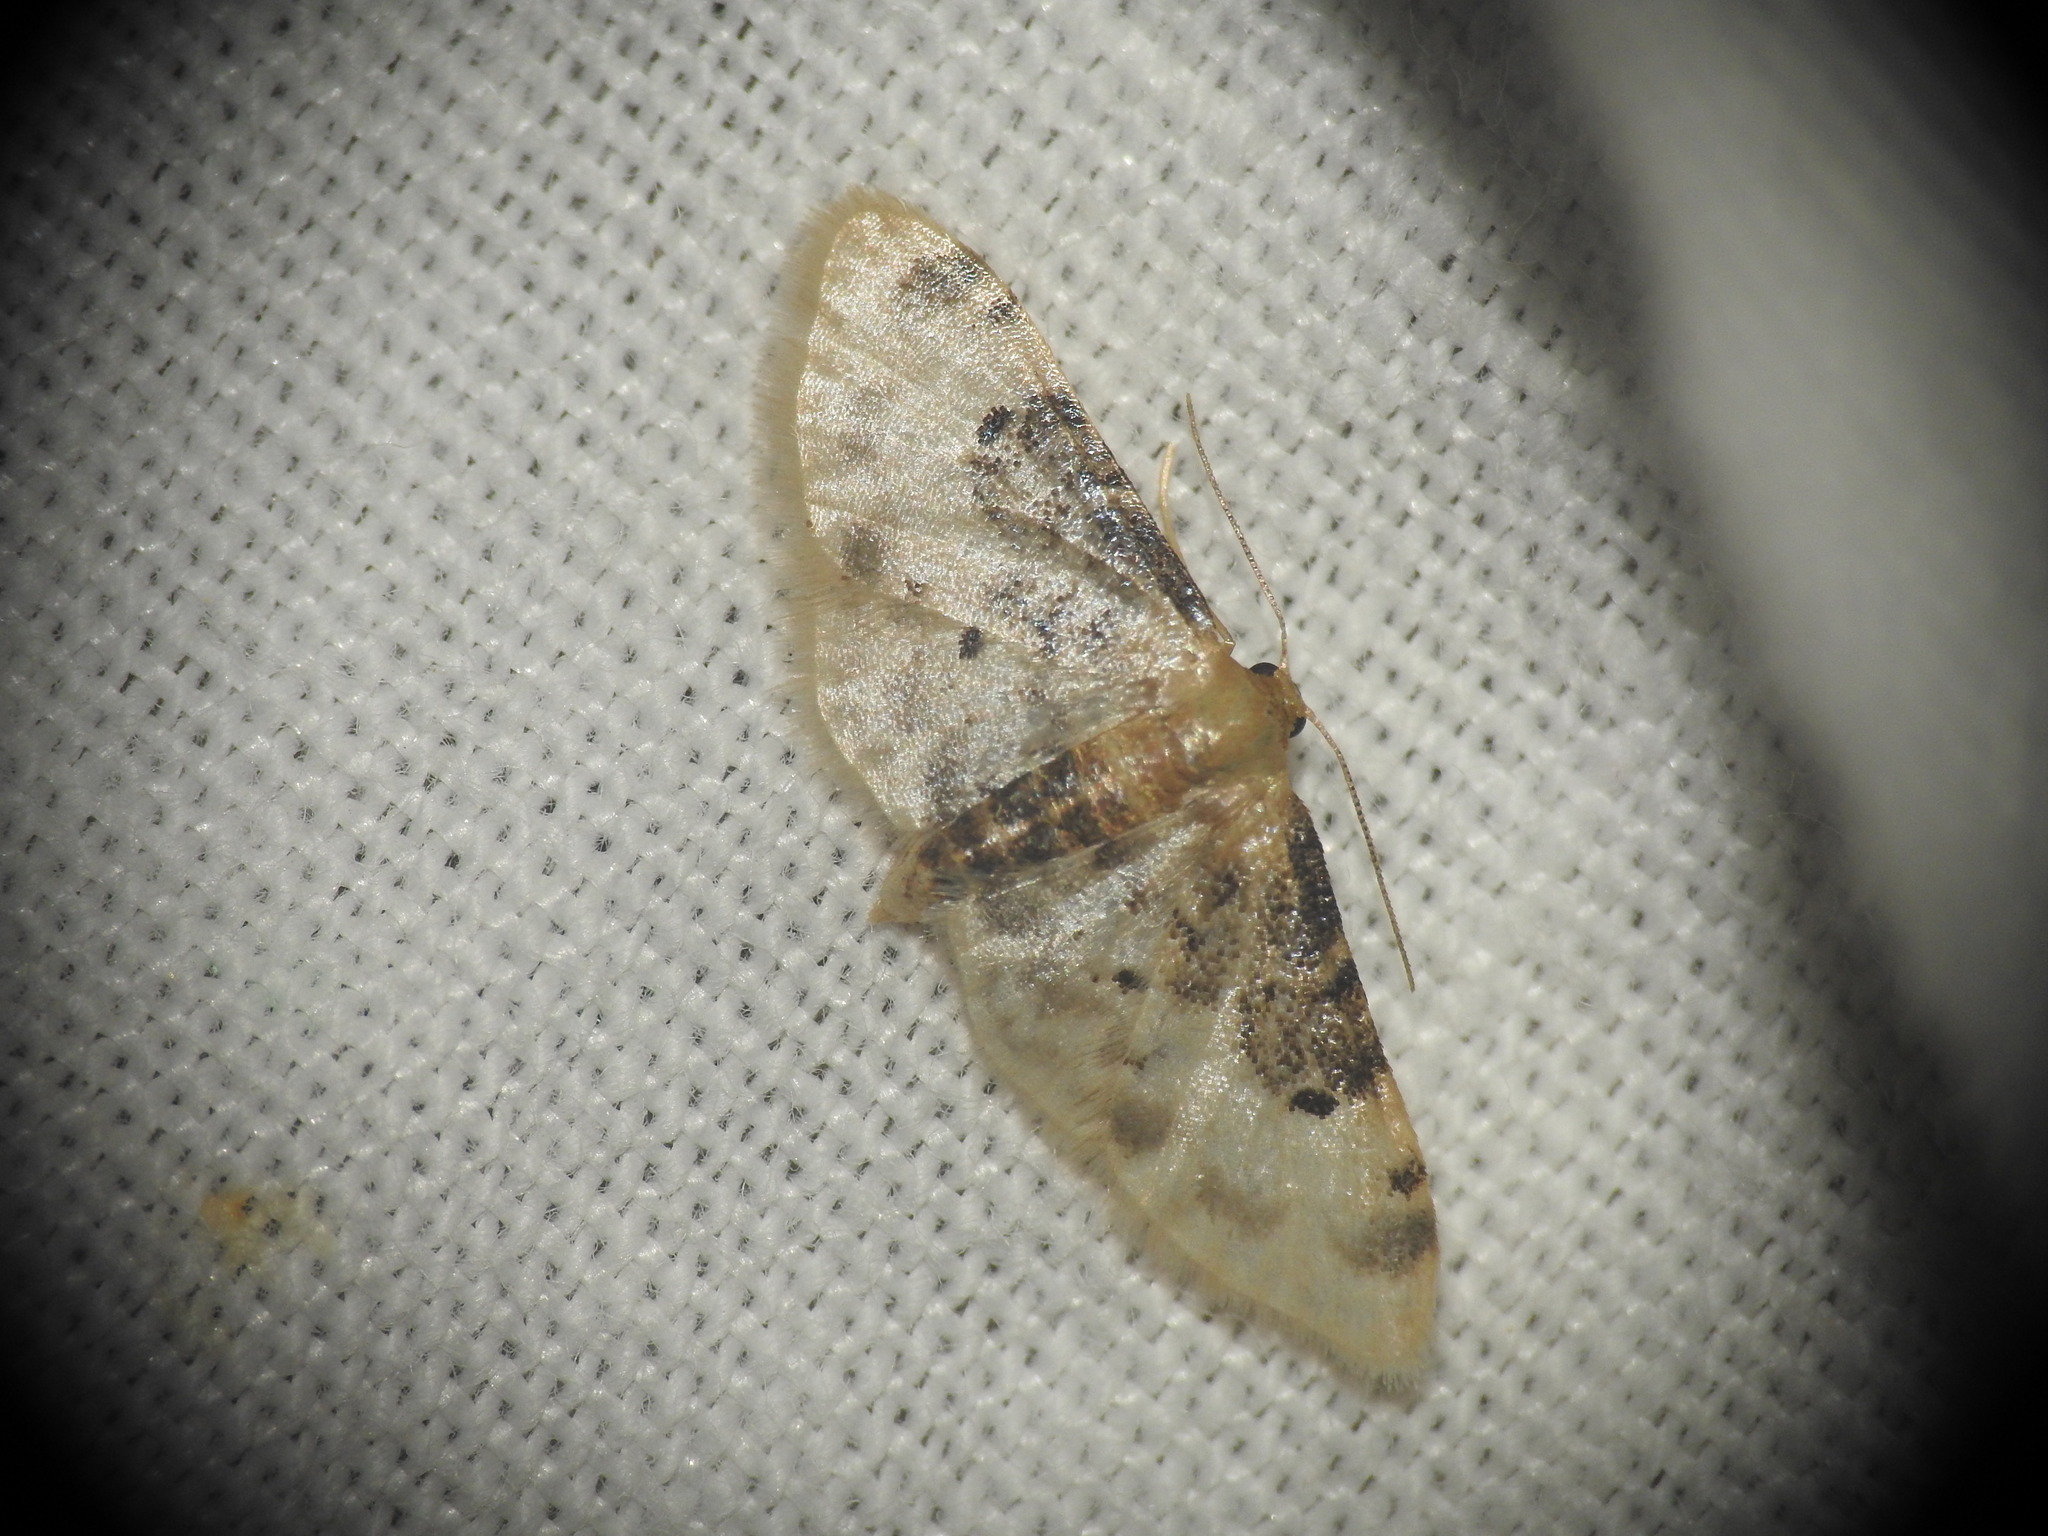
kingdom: Animalia
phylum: Arthropoda
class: Insecta
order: Lepidoptera
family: Geometridae
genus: Idaea
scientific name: Idaea filicata
